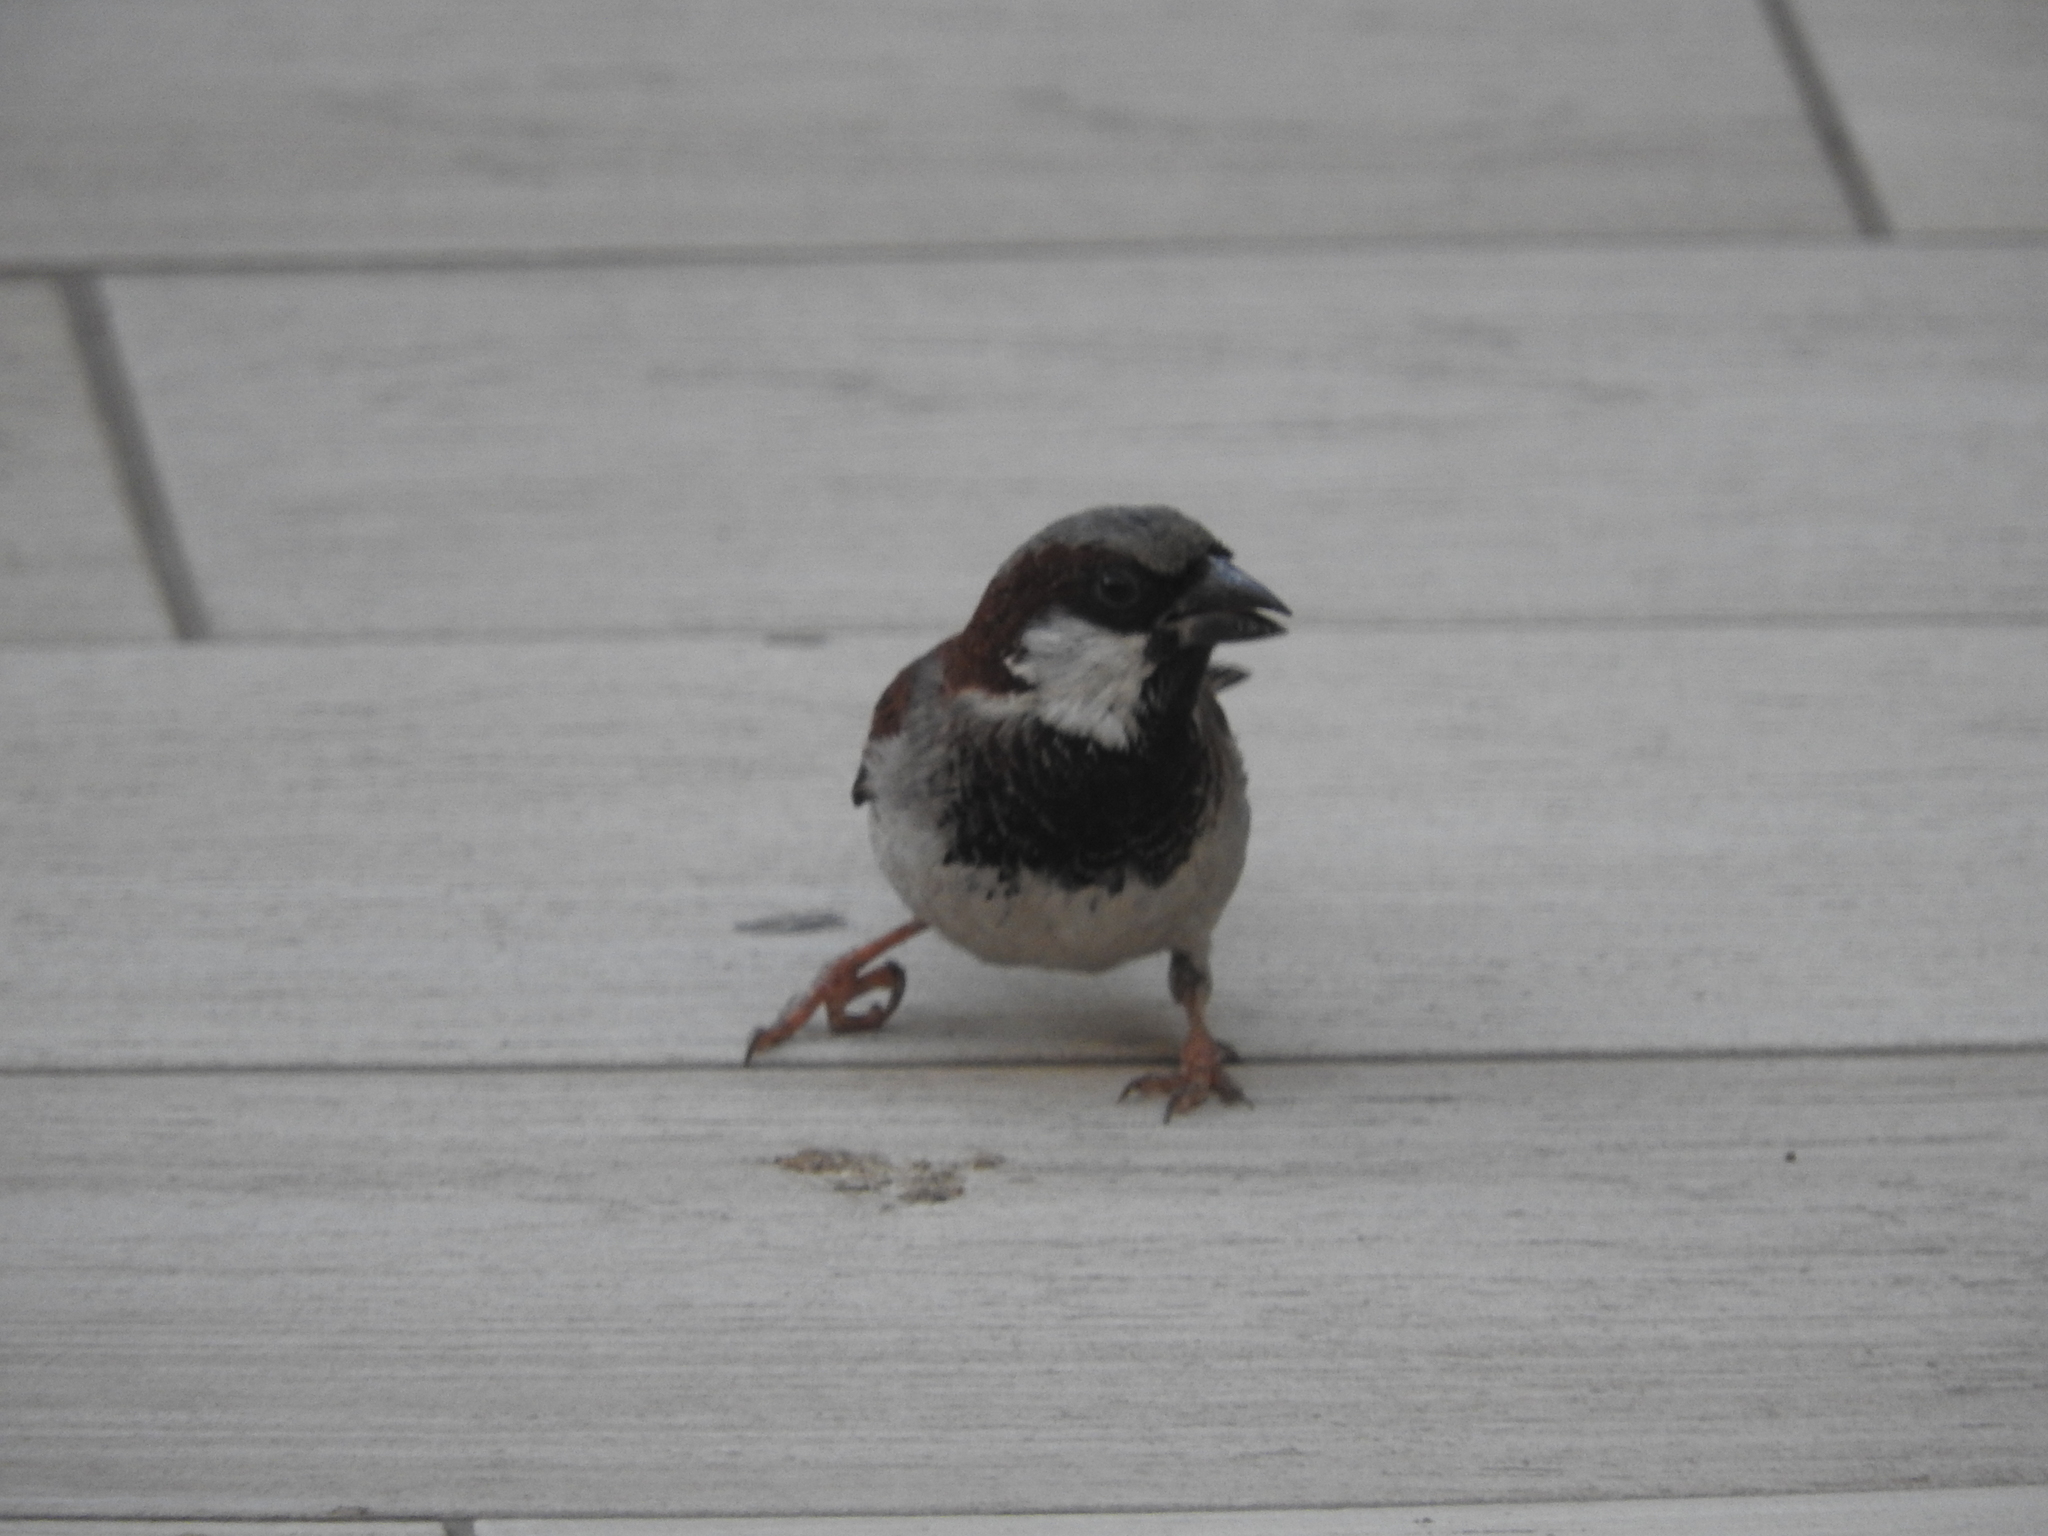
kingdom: Animalia
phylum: Chordata
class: Aves
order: Passeriformes
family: Passeridae
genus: Passer
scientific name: Passer domesticus
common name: House sparrow
